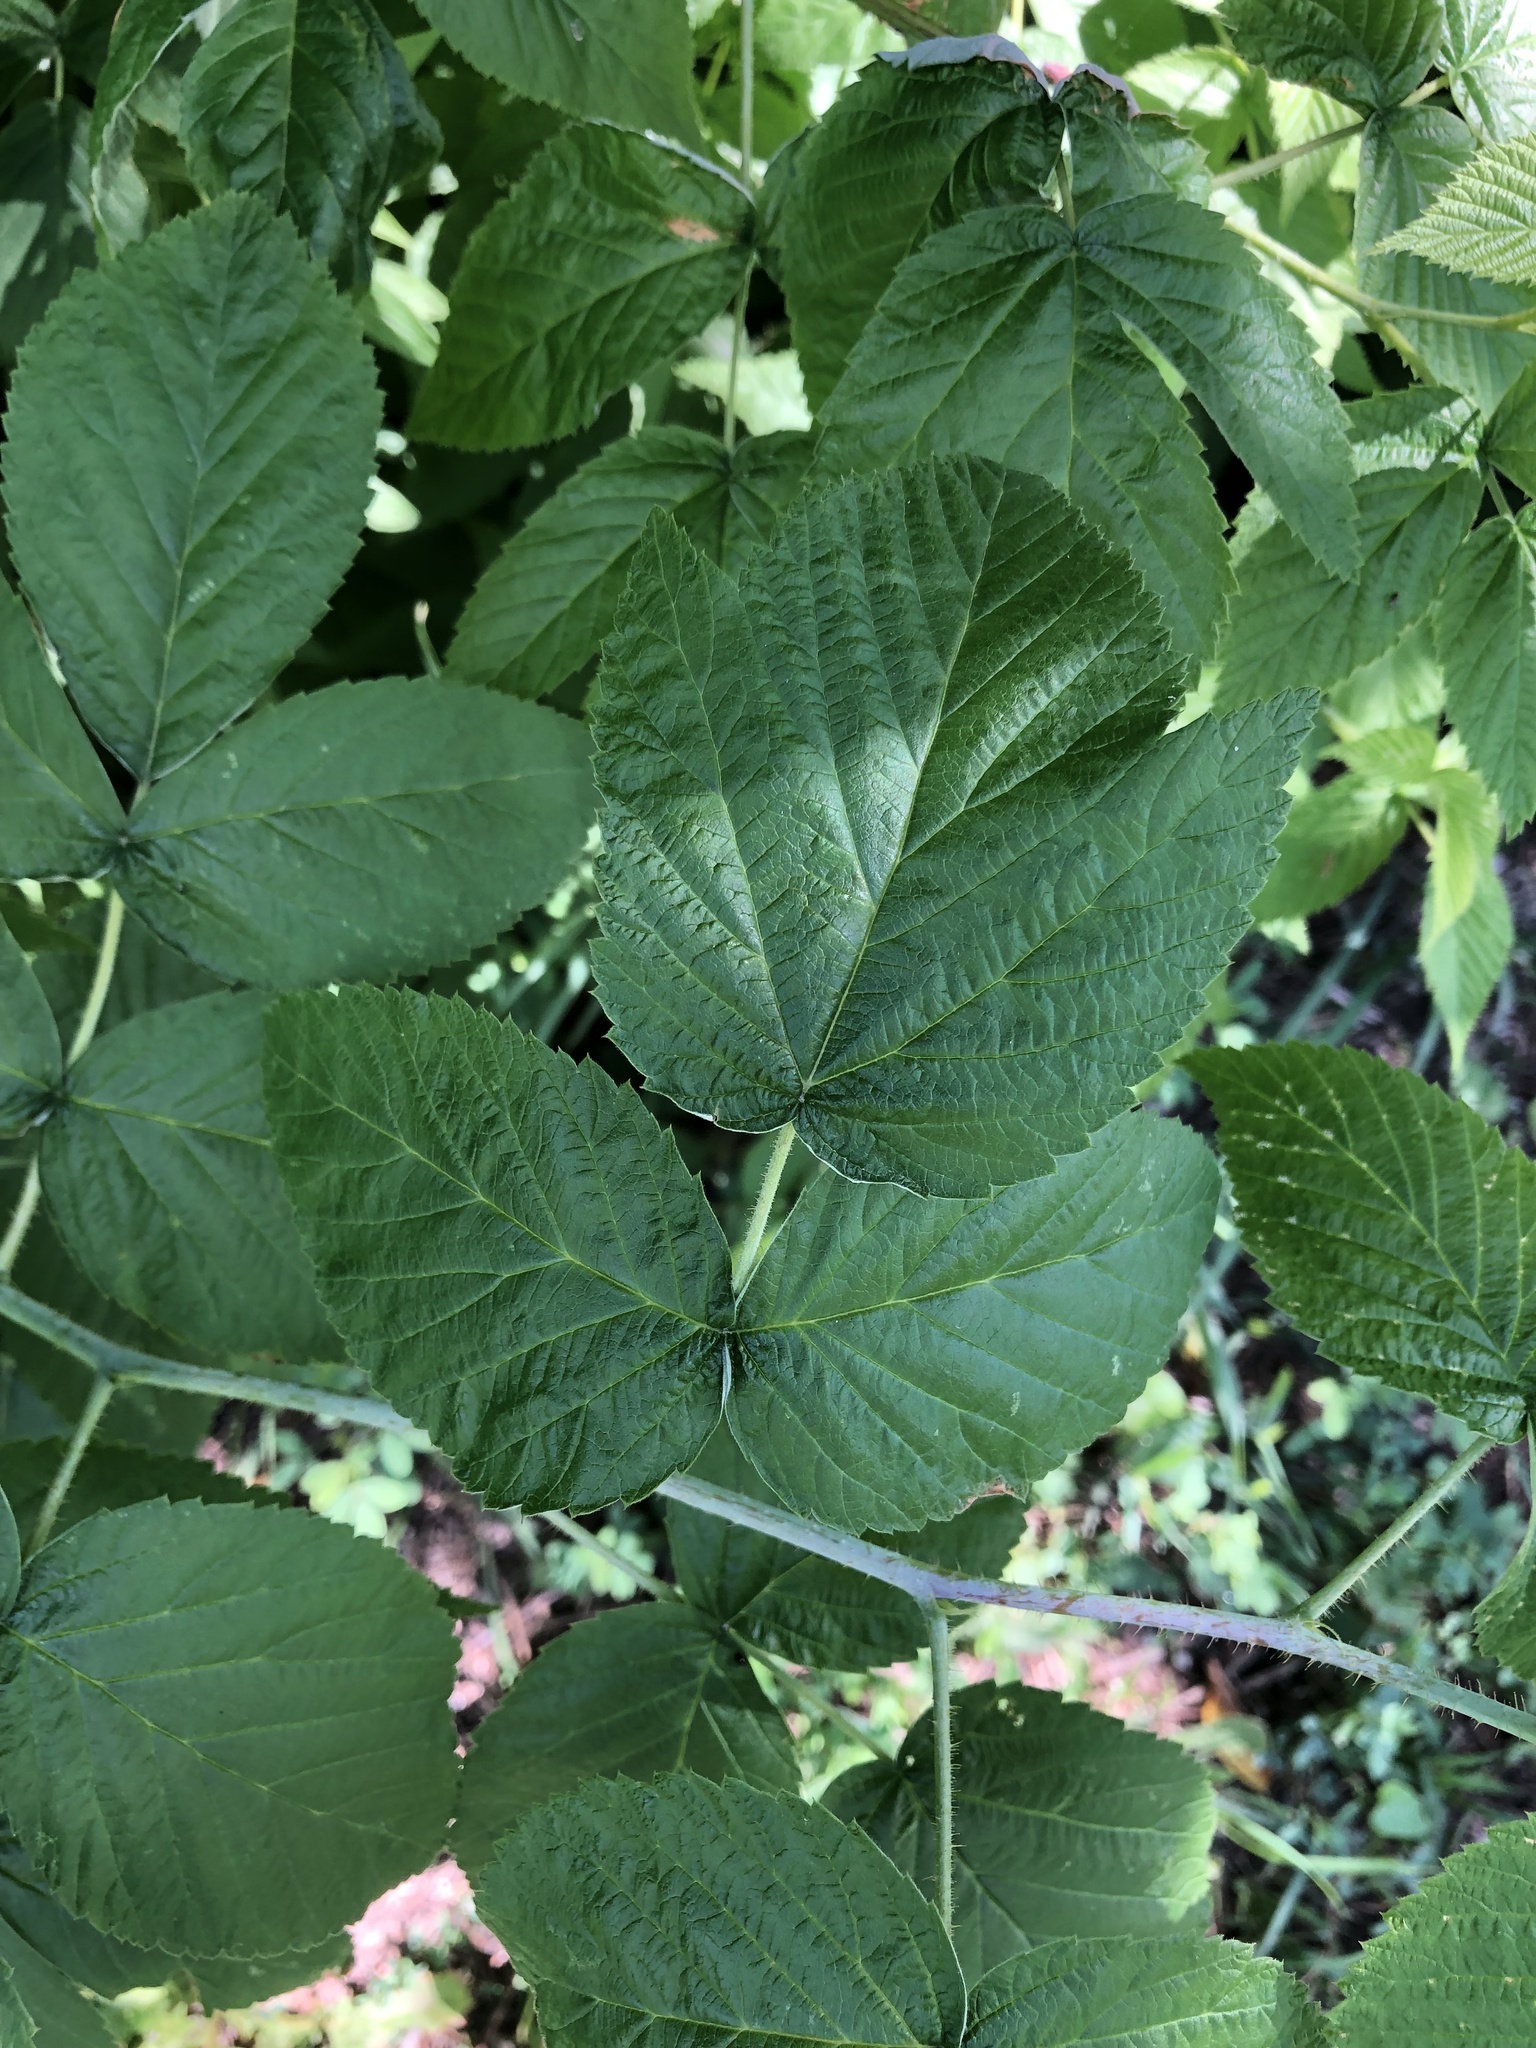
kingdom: Plantae
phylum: Tracheophyta
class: Magnoliopsida
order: Rosales
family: Rosaceae
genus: Rubus
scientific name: Rubus idaeus
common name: Raspberry
